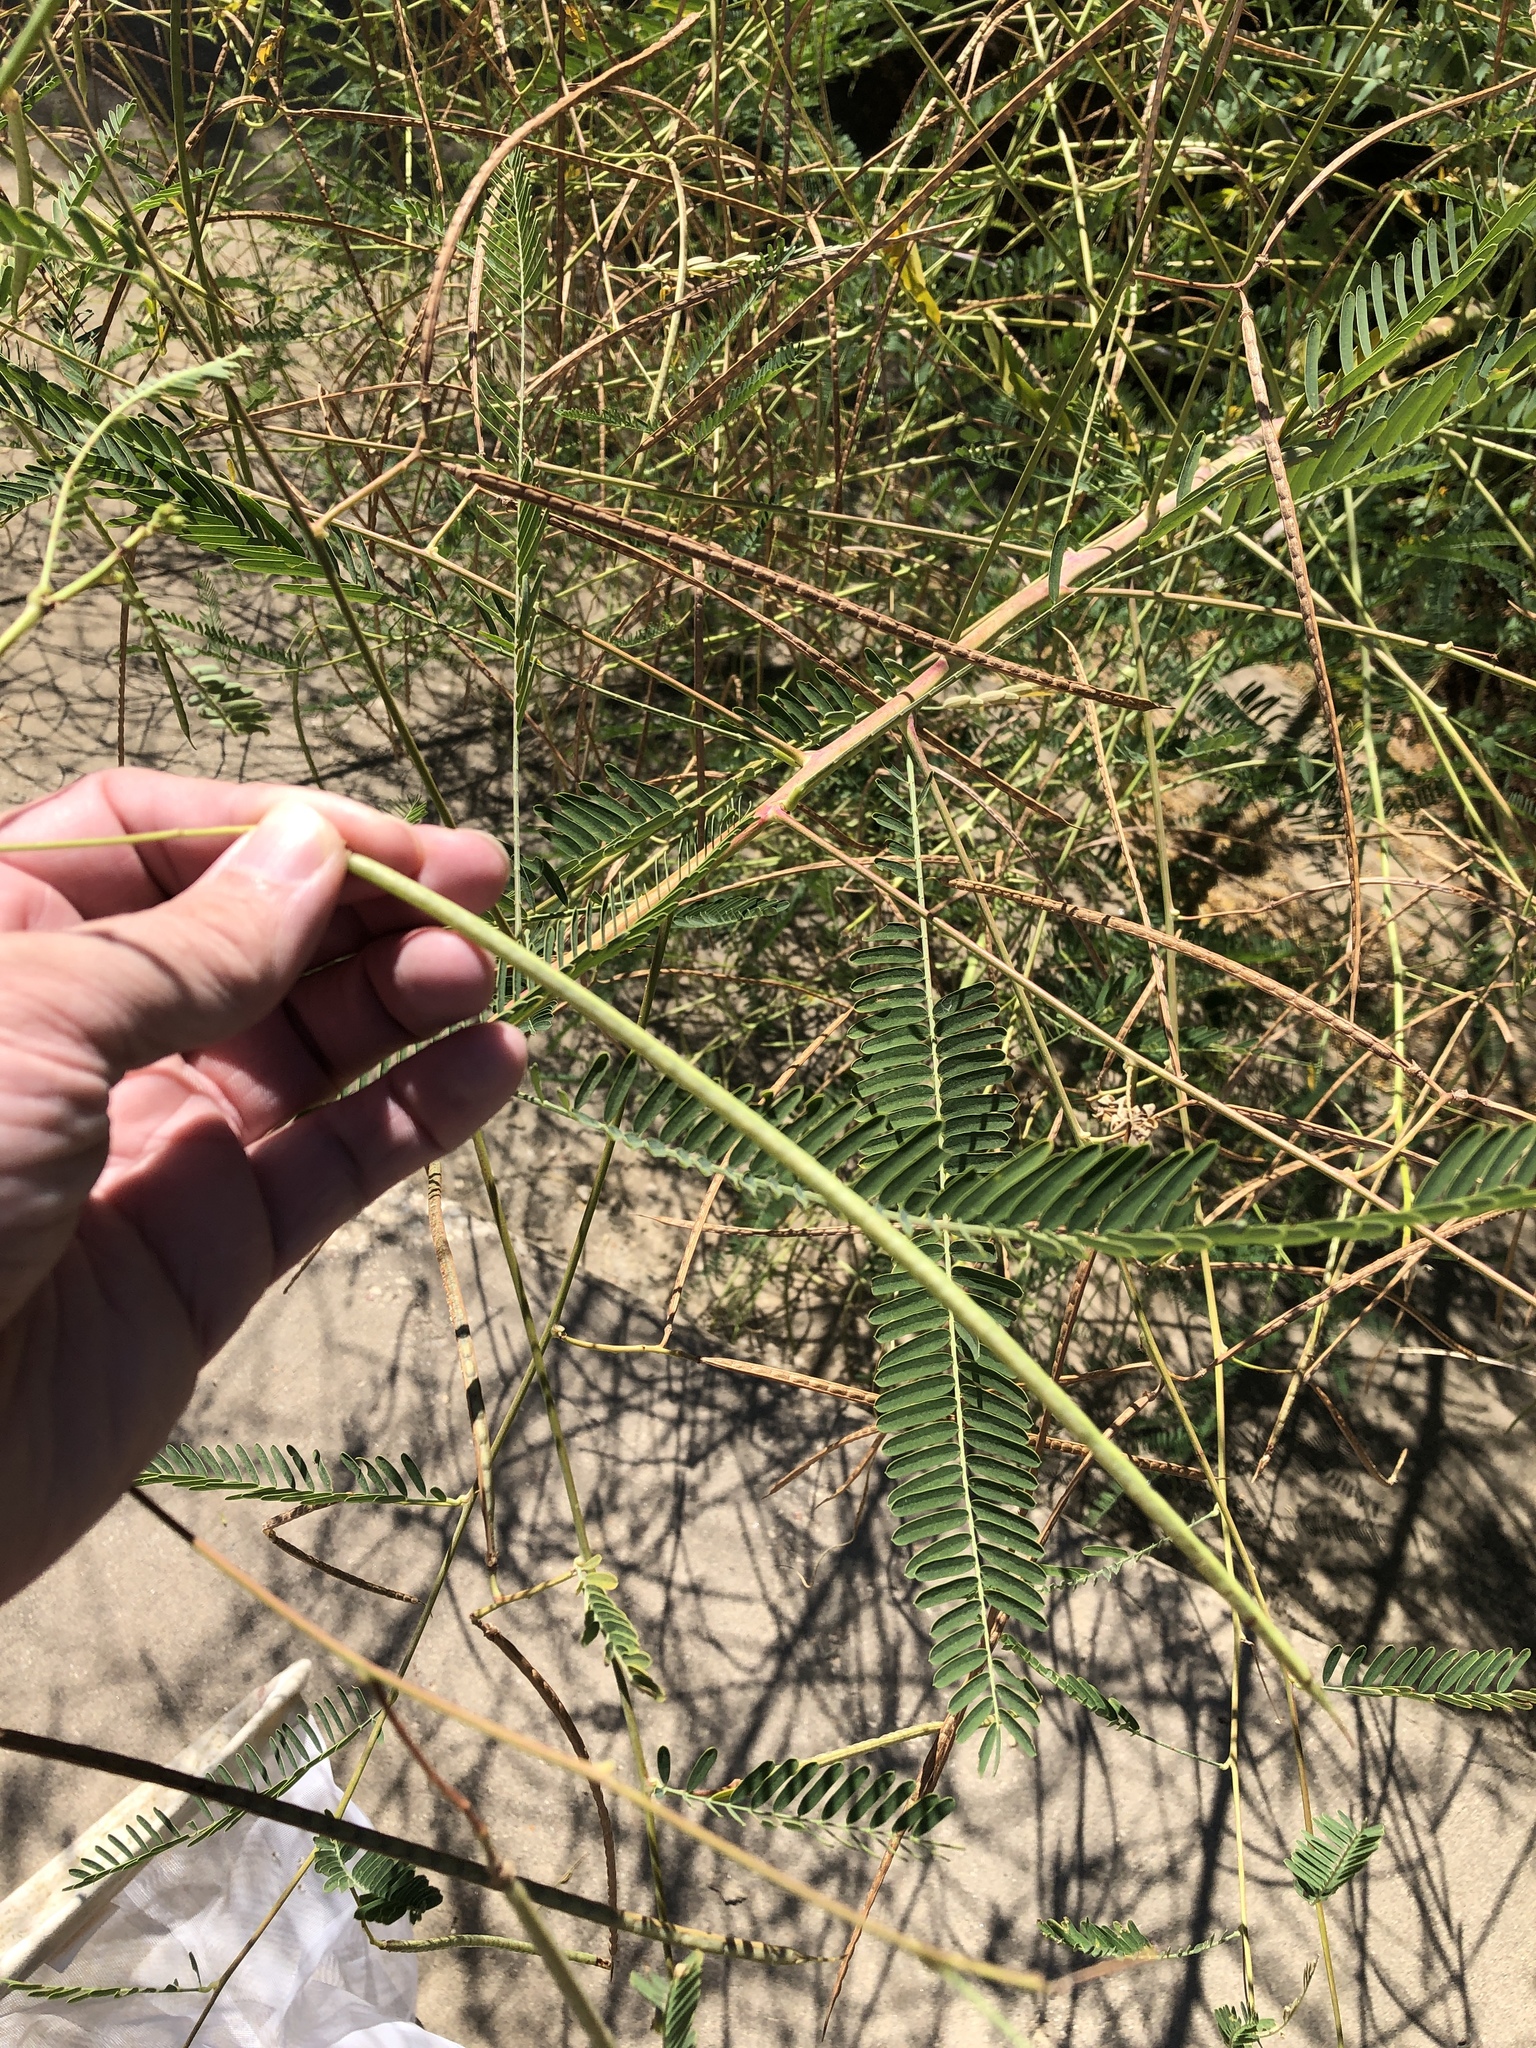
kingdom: Plantae
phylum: Tracheophyta
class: Magnoliopsida
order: Fabales
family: Fabaceae
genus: Sesbania
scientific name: Sesbania herbacea
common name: Bigpod sesbania
